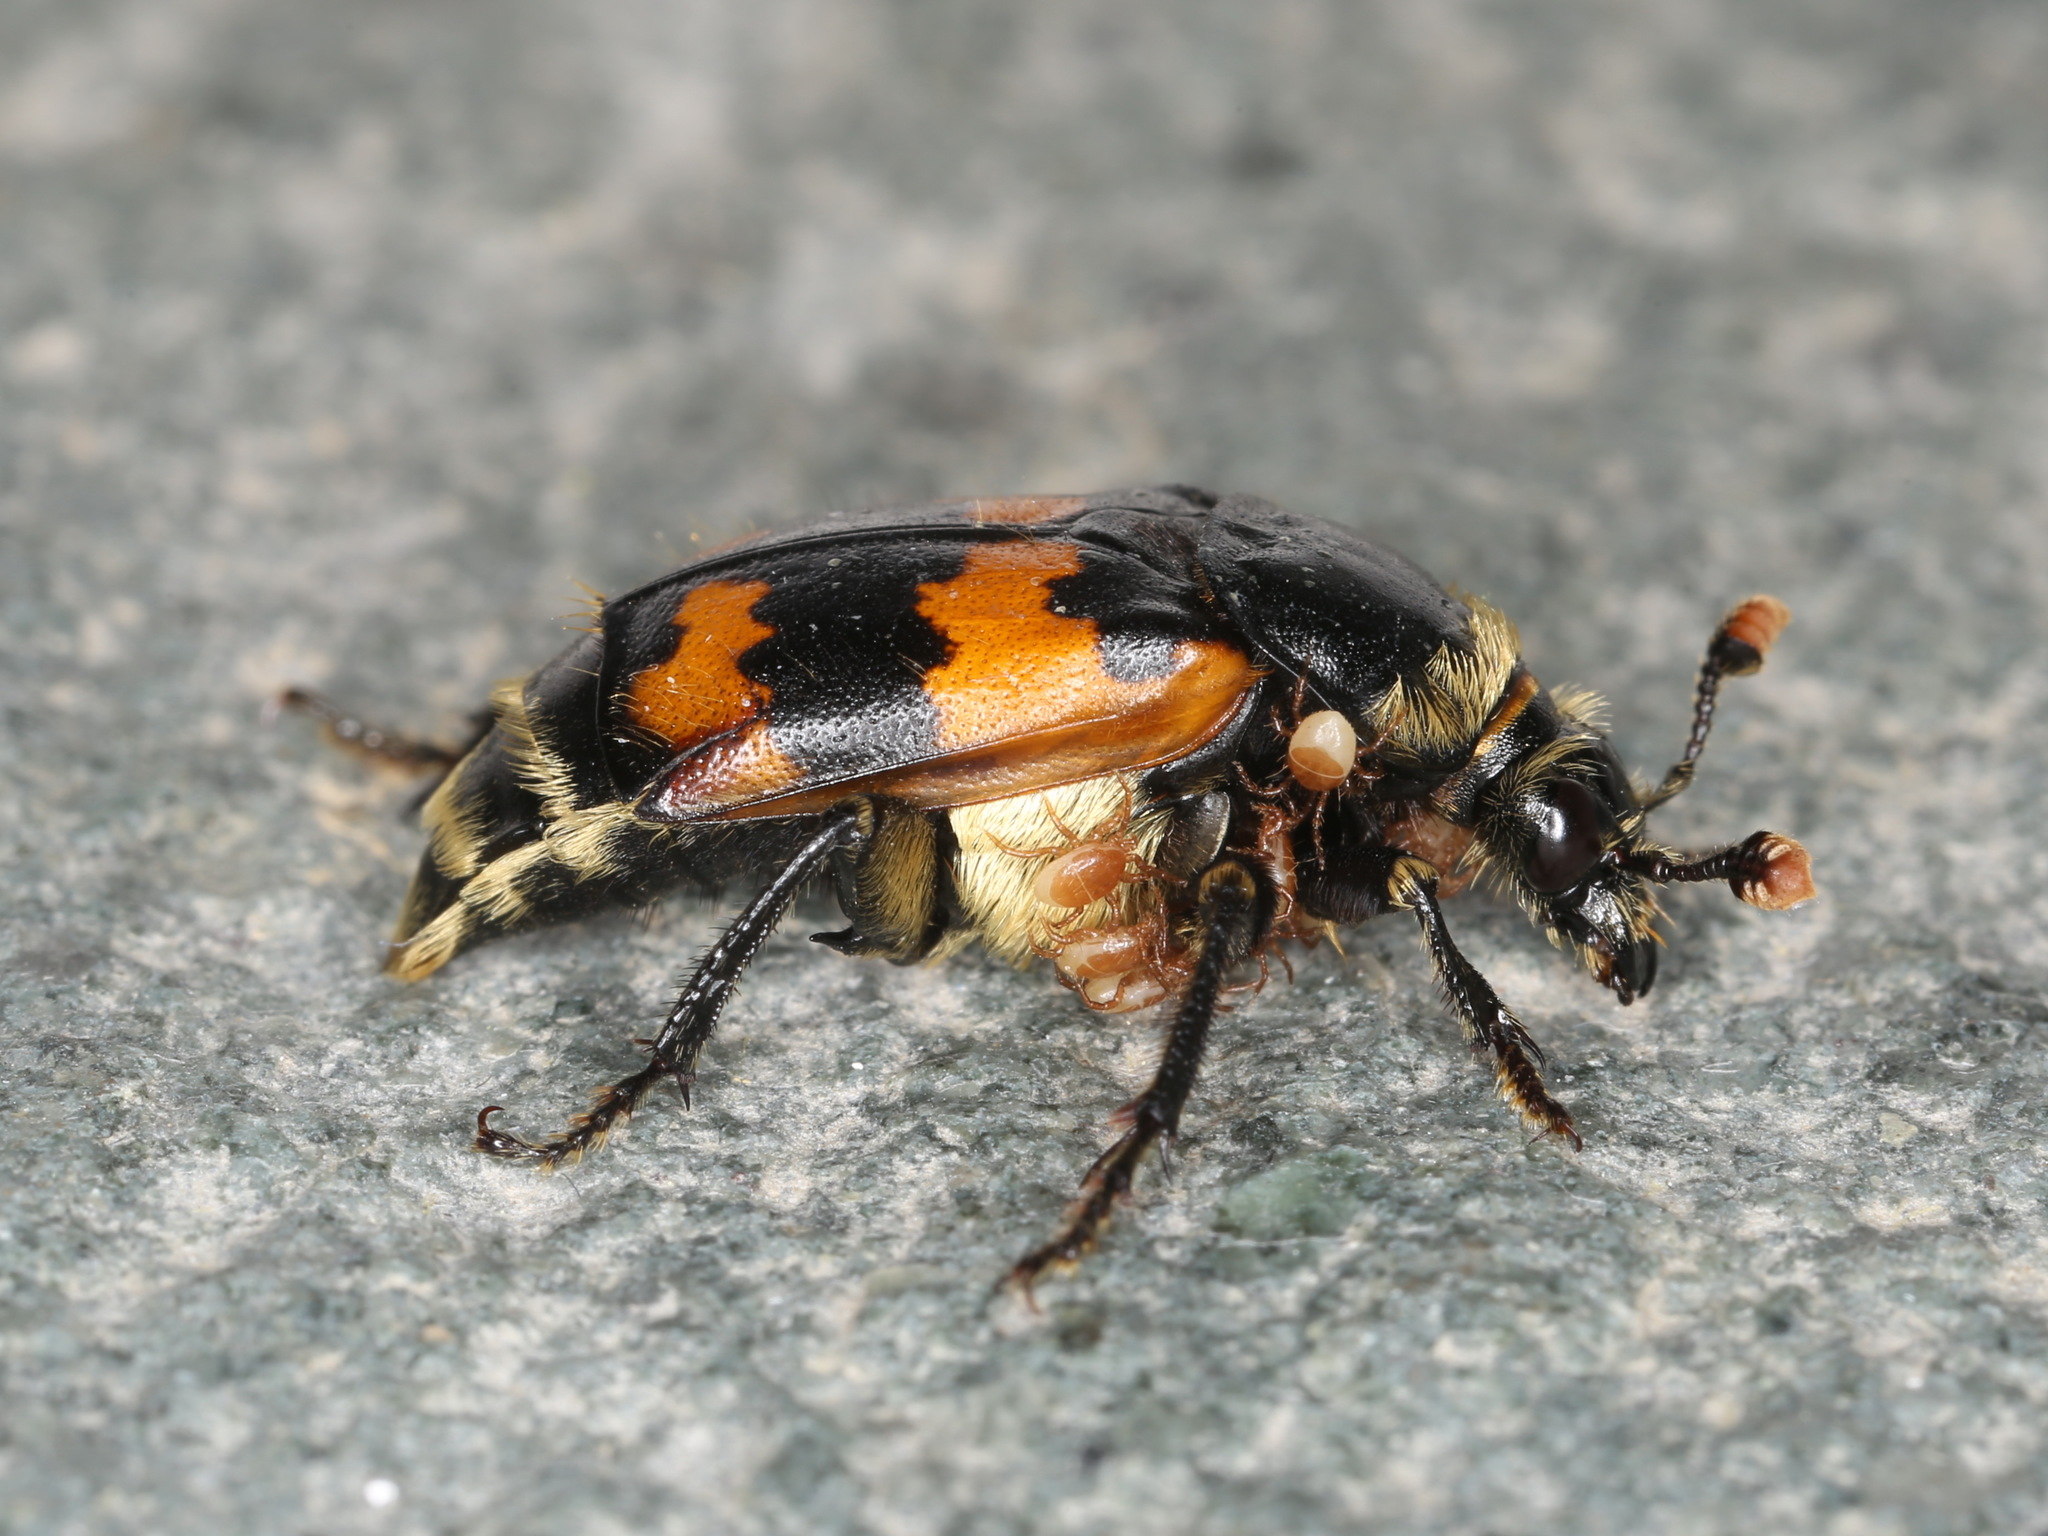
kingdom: Animalia
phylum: Arthropoda
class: Insecta
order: Coleoptera
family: Staphylinidae
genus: Nicrophorus
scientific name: Nicrophorus vespillo
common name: Common burying beetle
